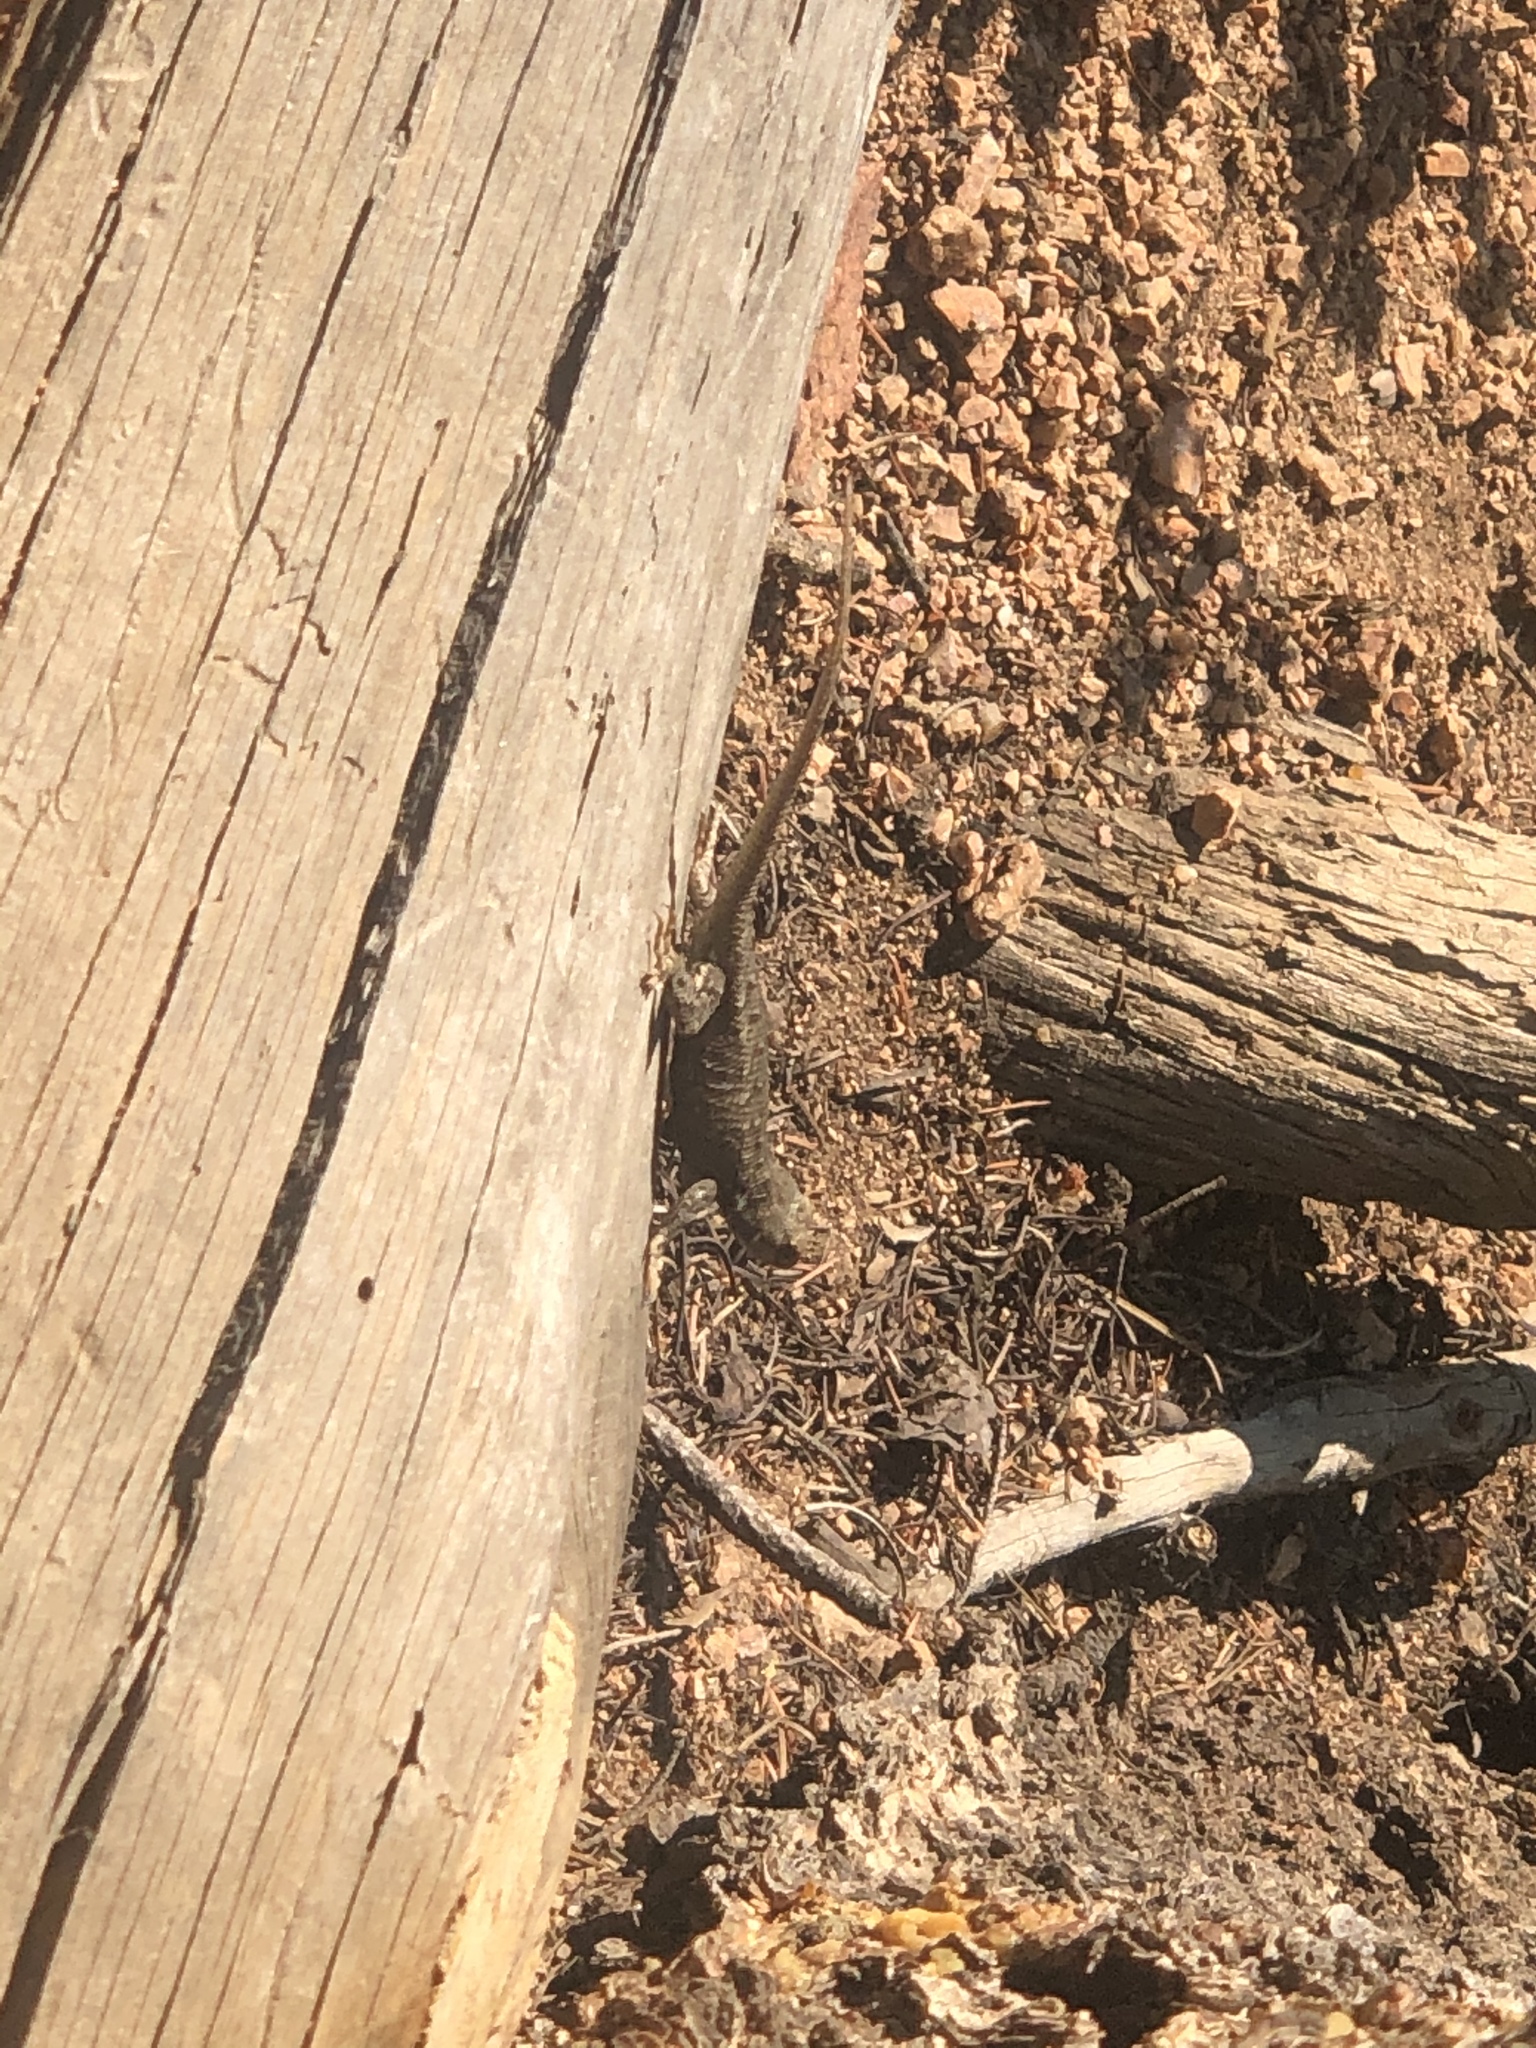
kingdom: Animalia
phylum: Chordata
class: Squamata
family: Phrynosomatidae
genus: Sceloporus
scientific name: Sceloporus consobrinus
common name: Southern prairie lizard
